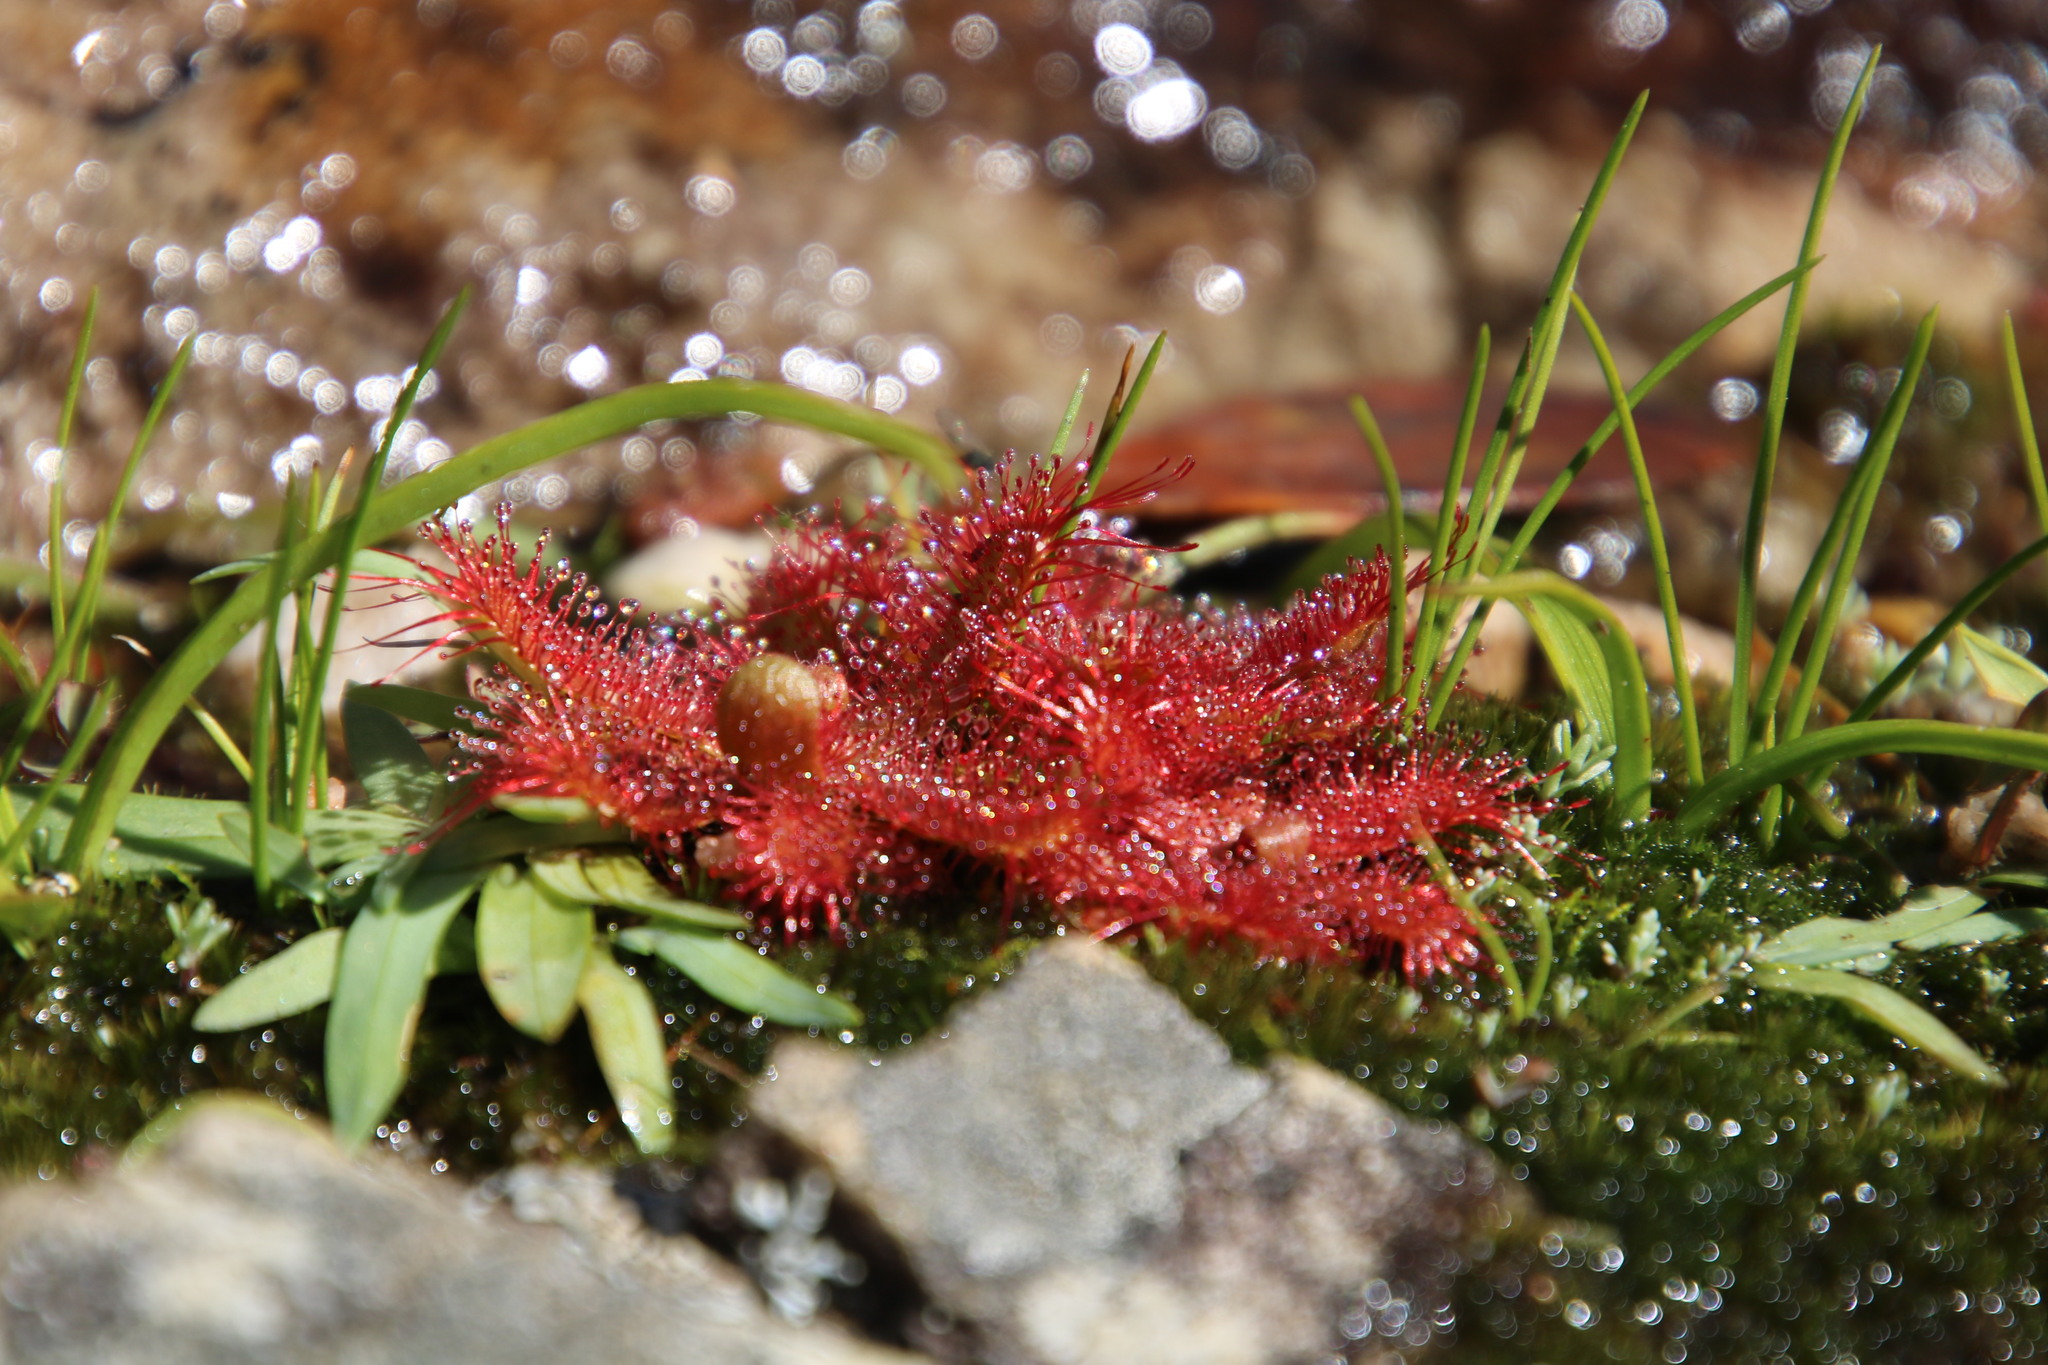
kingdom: Plantae
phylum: Tracheophyta
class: Magnoliopsida
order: Caryophyllales
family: Droseraceae
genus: Drosera
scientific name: Drosera trinervia
